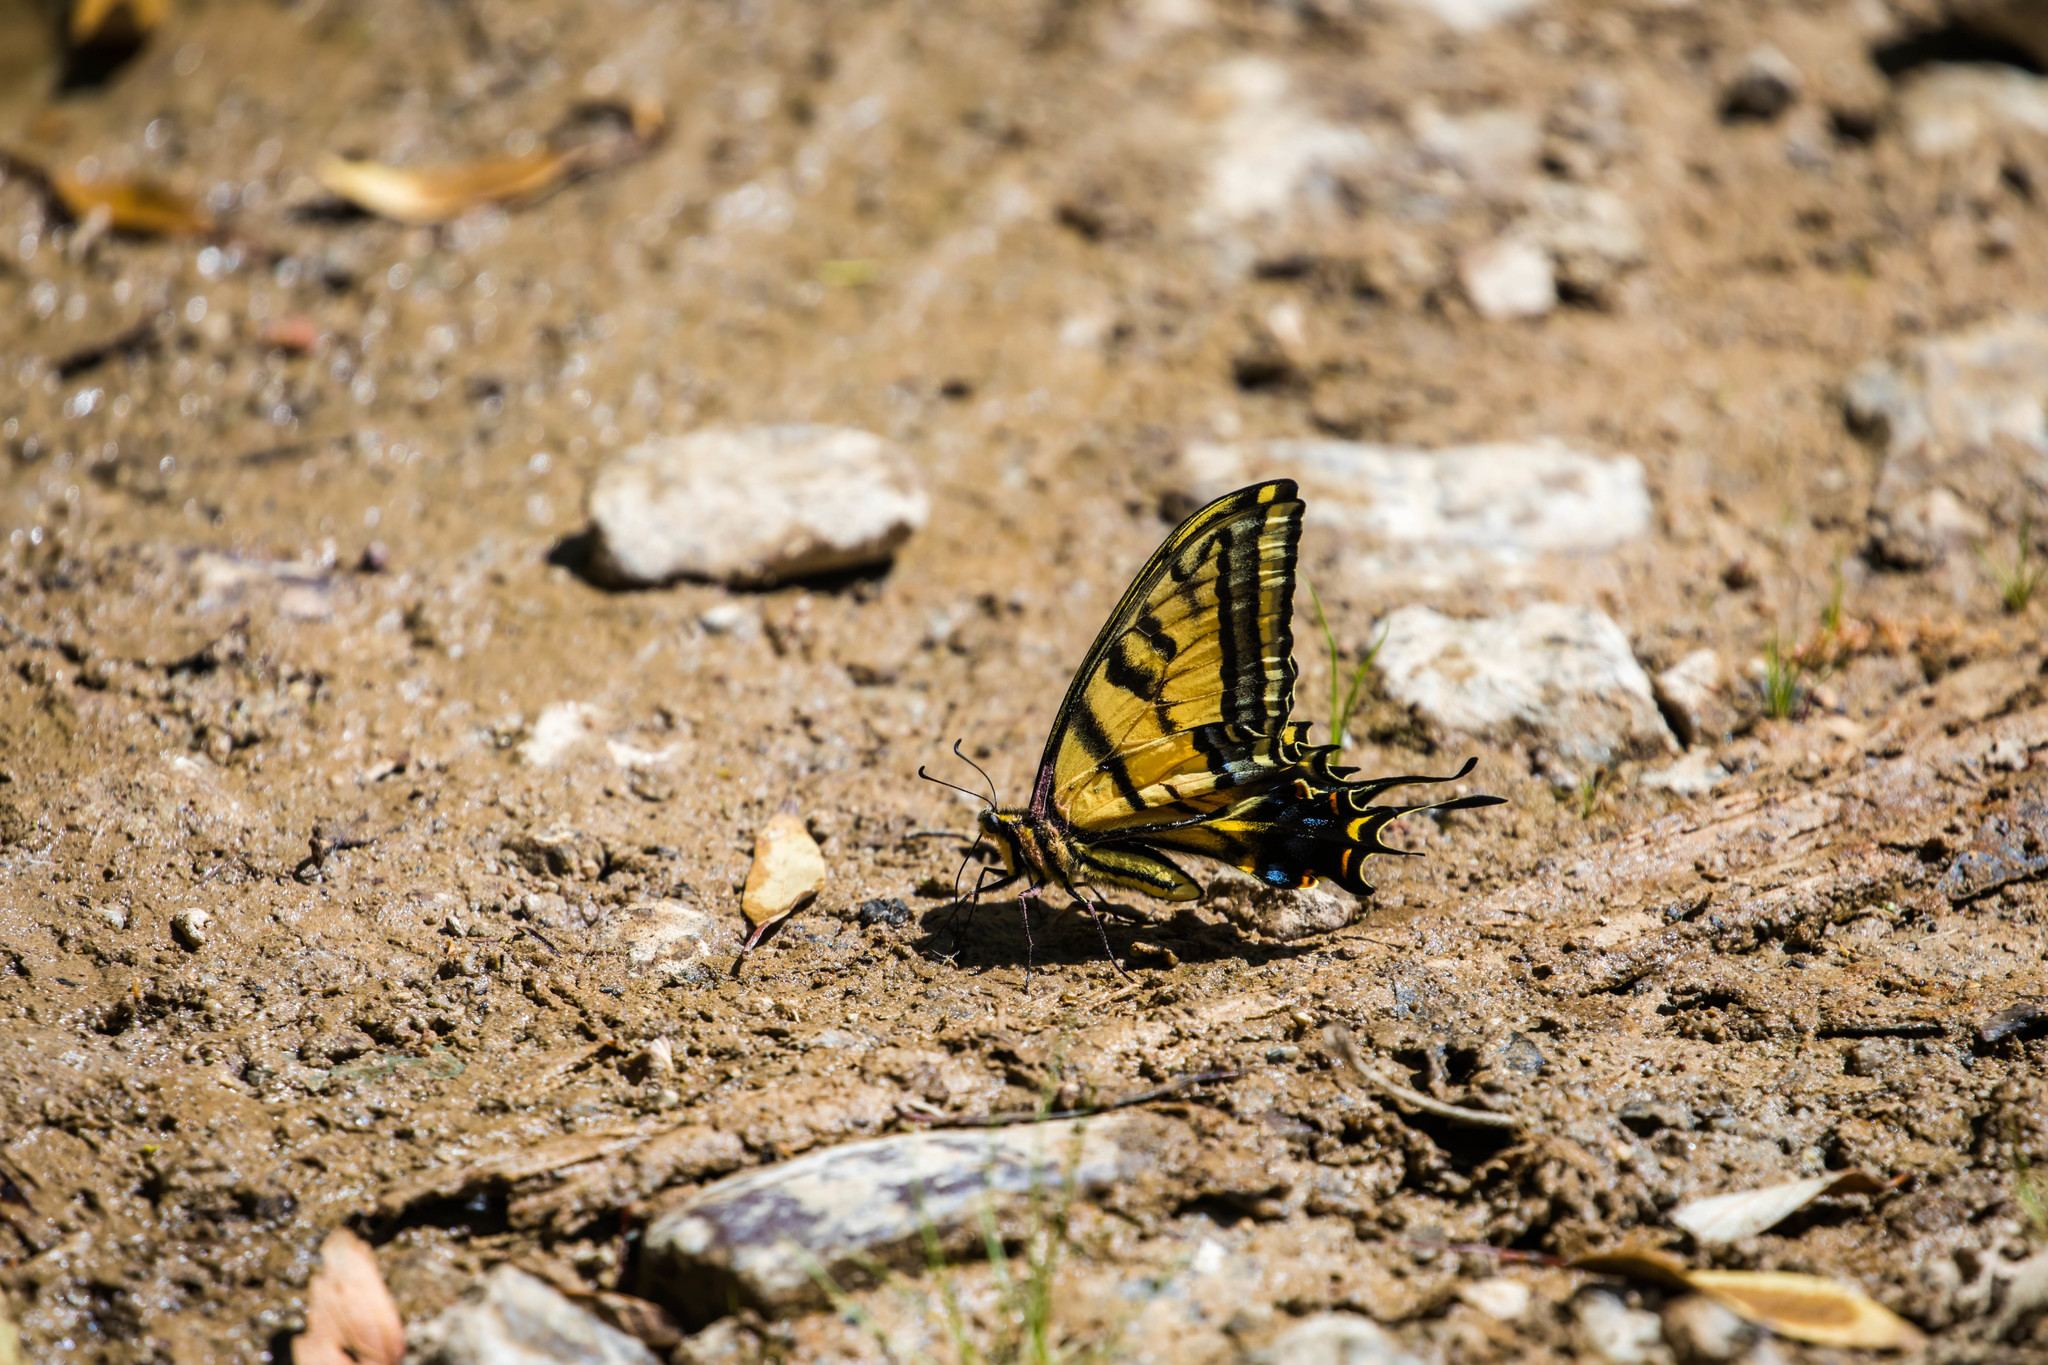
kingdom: Animalia
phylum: Arthropoda
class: Insecta
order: Lepidoptera
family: Papilionidae
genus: Papilio
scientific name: Papilio multicaudata
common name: Two-tailed tiger swallowtail
